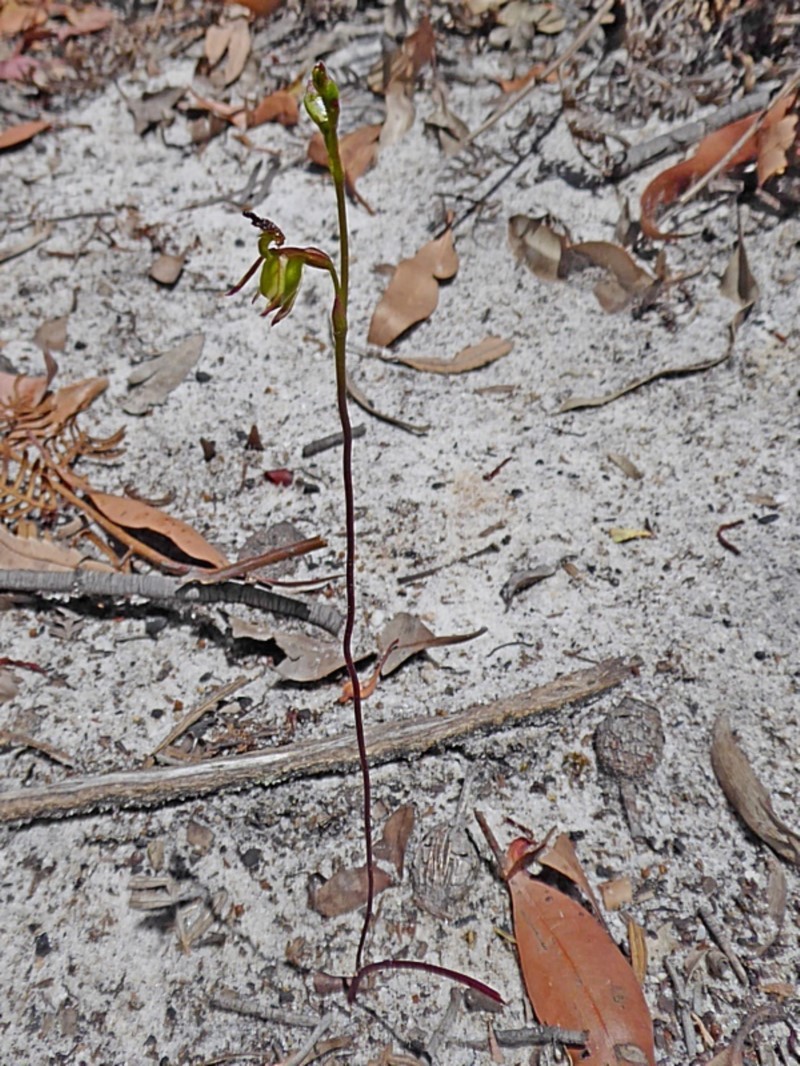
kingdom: Plantae
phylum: Tracheophyta
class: Liliopsida
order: Asparagales
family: Orchidaceae
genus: Caleana
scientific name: Caleana minor
